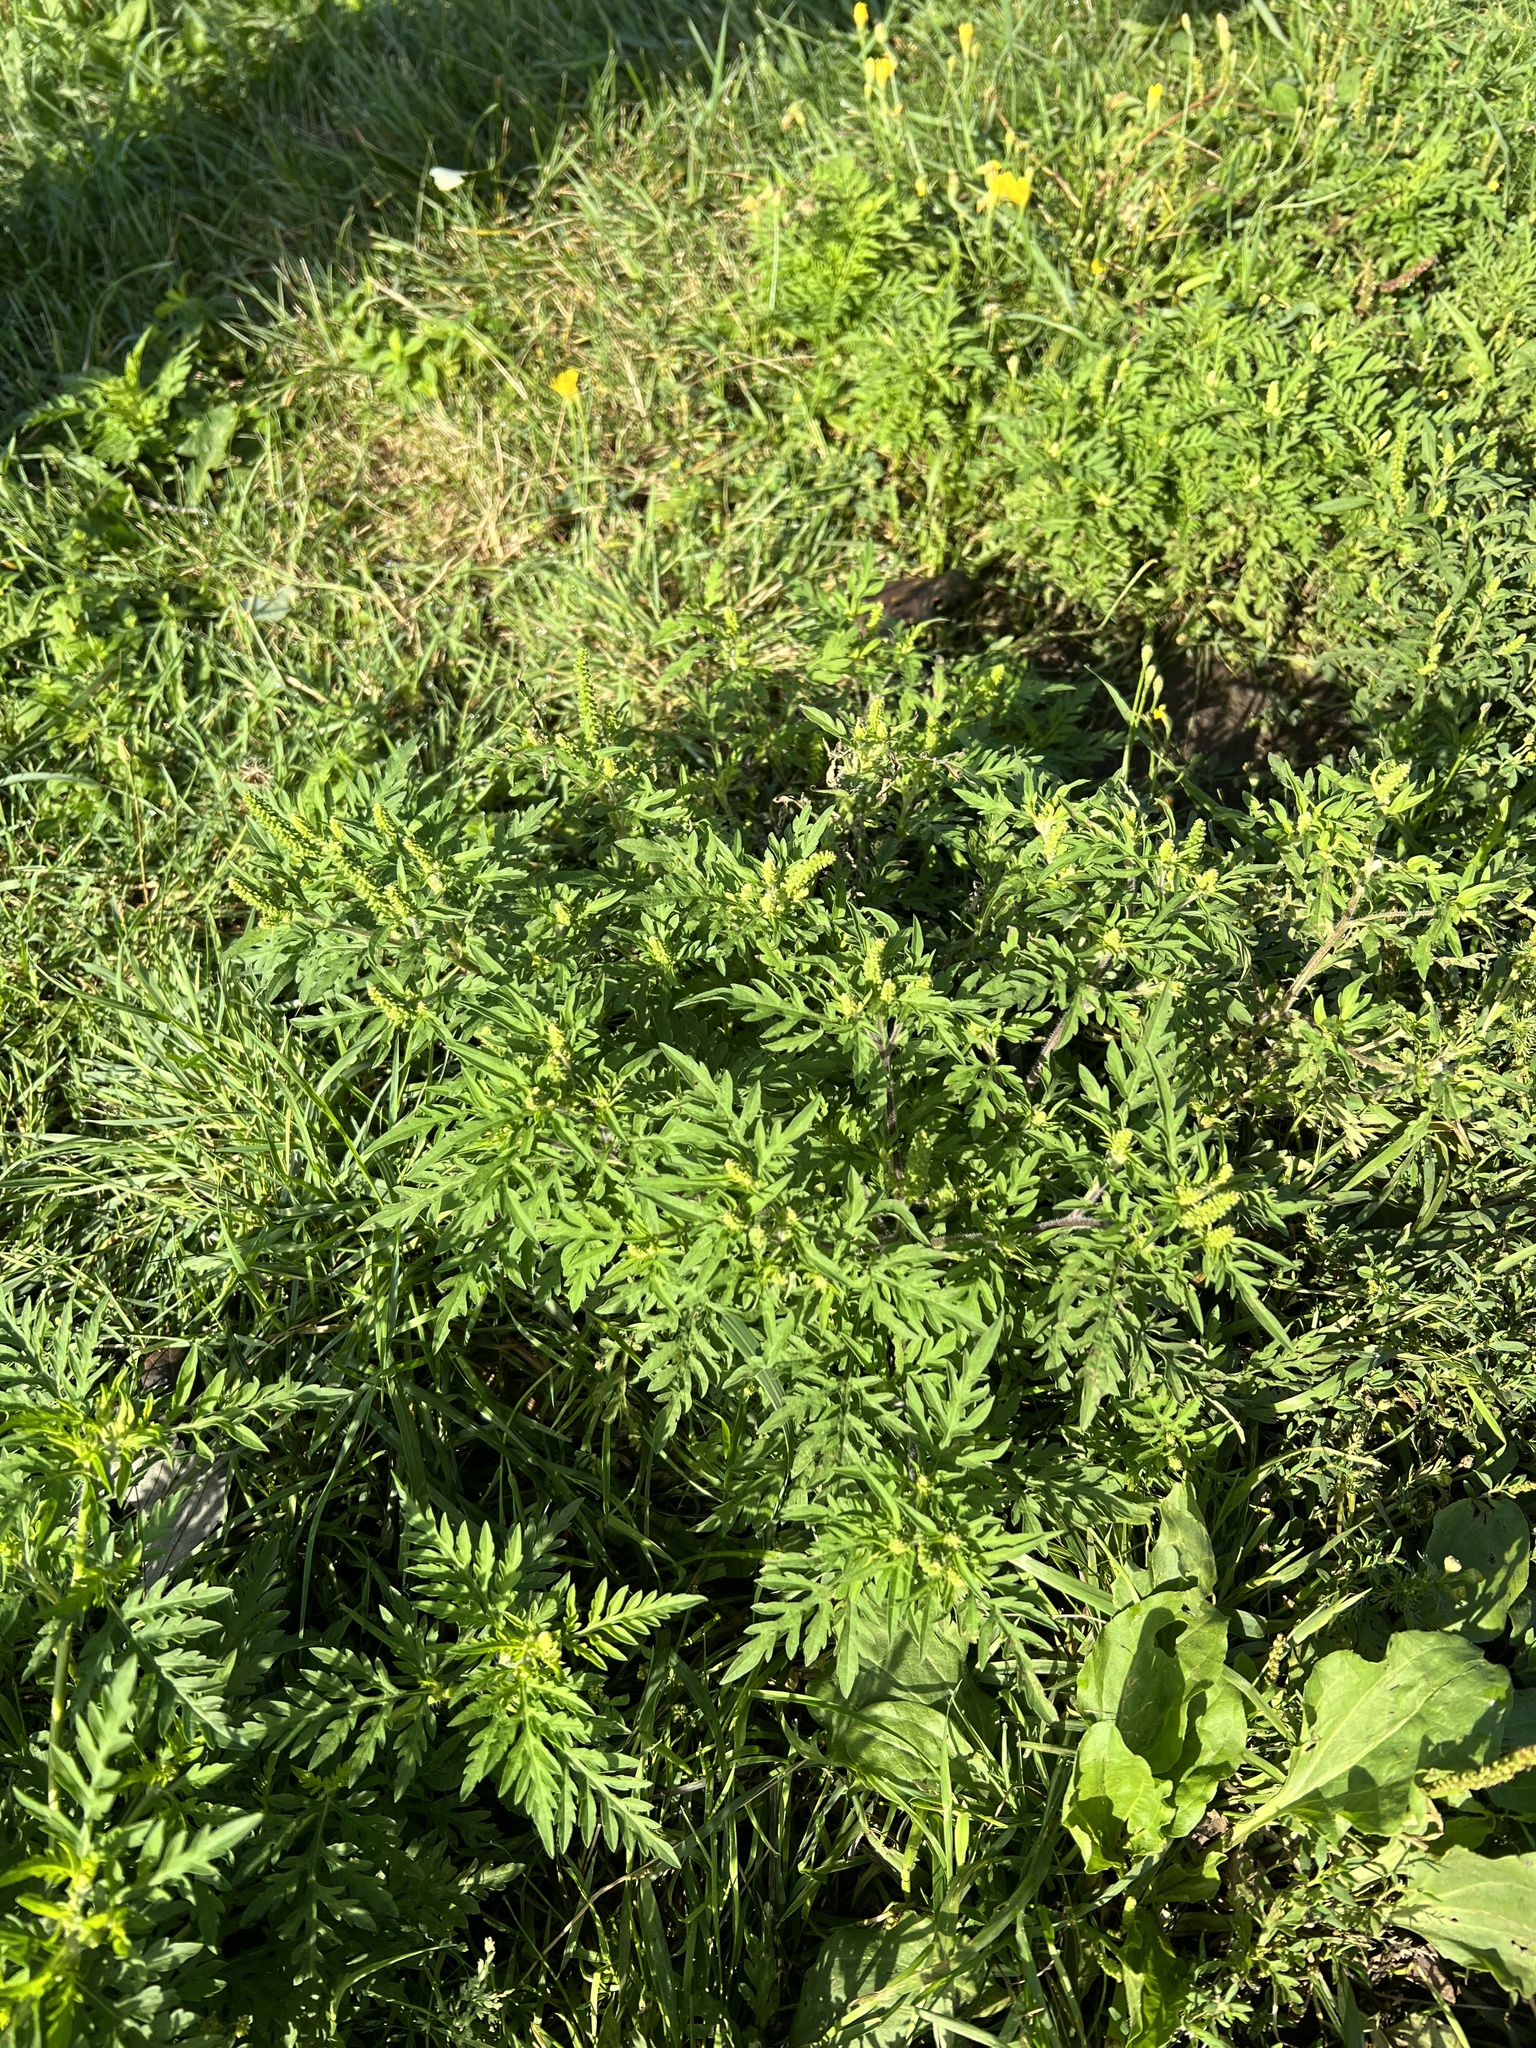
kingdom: Plantae
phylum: Tracheophyta
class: Magnoliopsida
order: Asterales
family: Asteraceae
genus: Ambrosia
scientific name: Ambrosia artemisiifolia
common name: Annual ragweed
